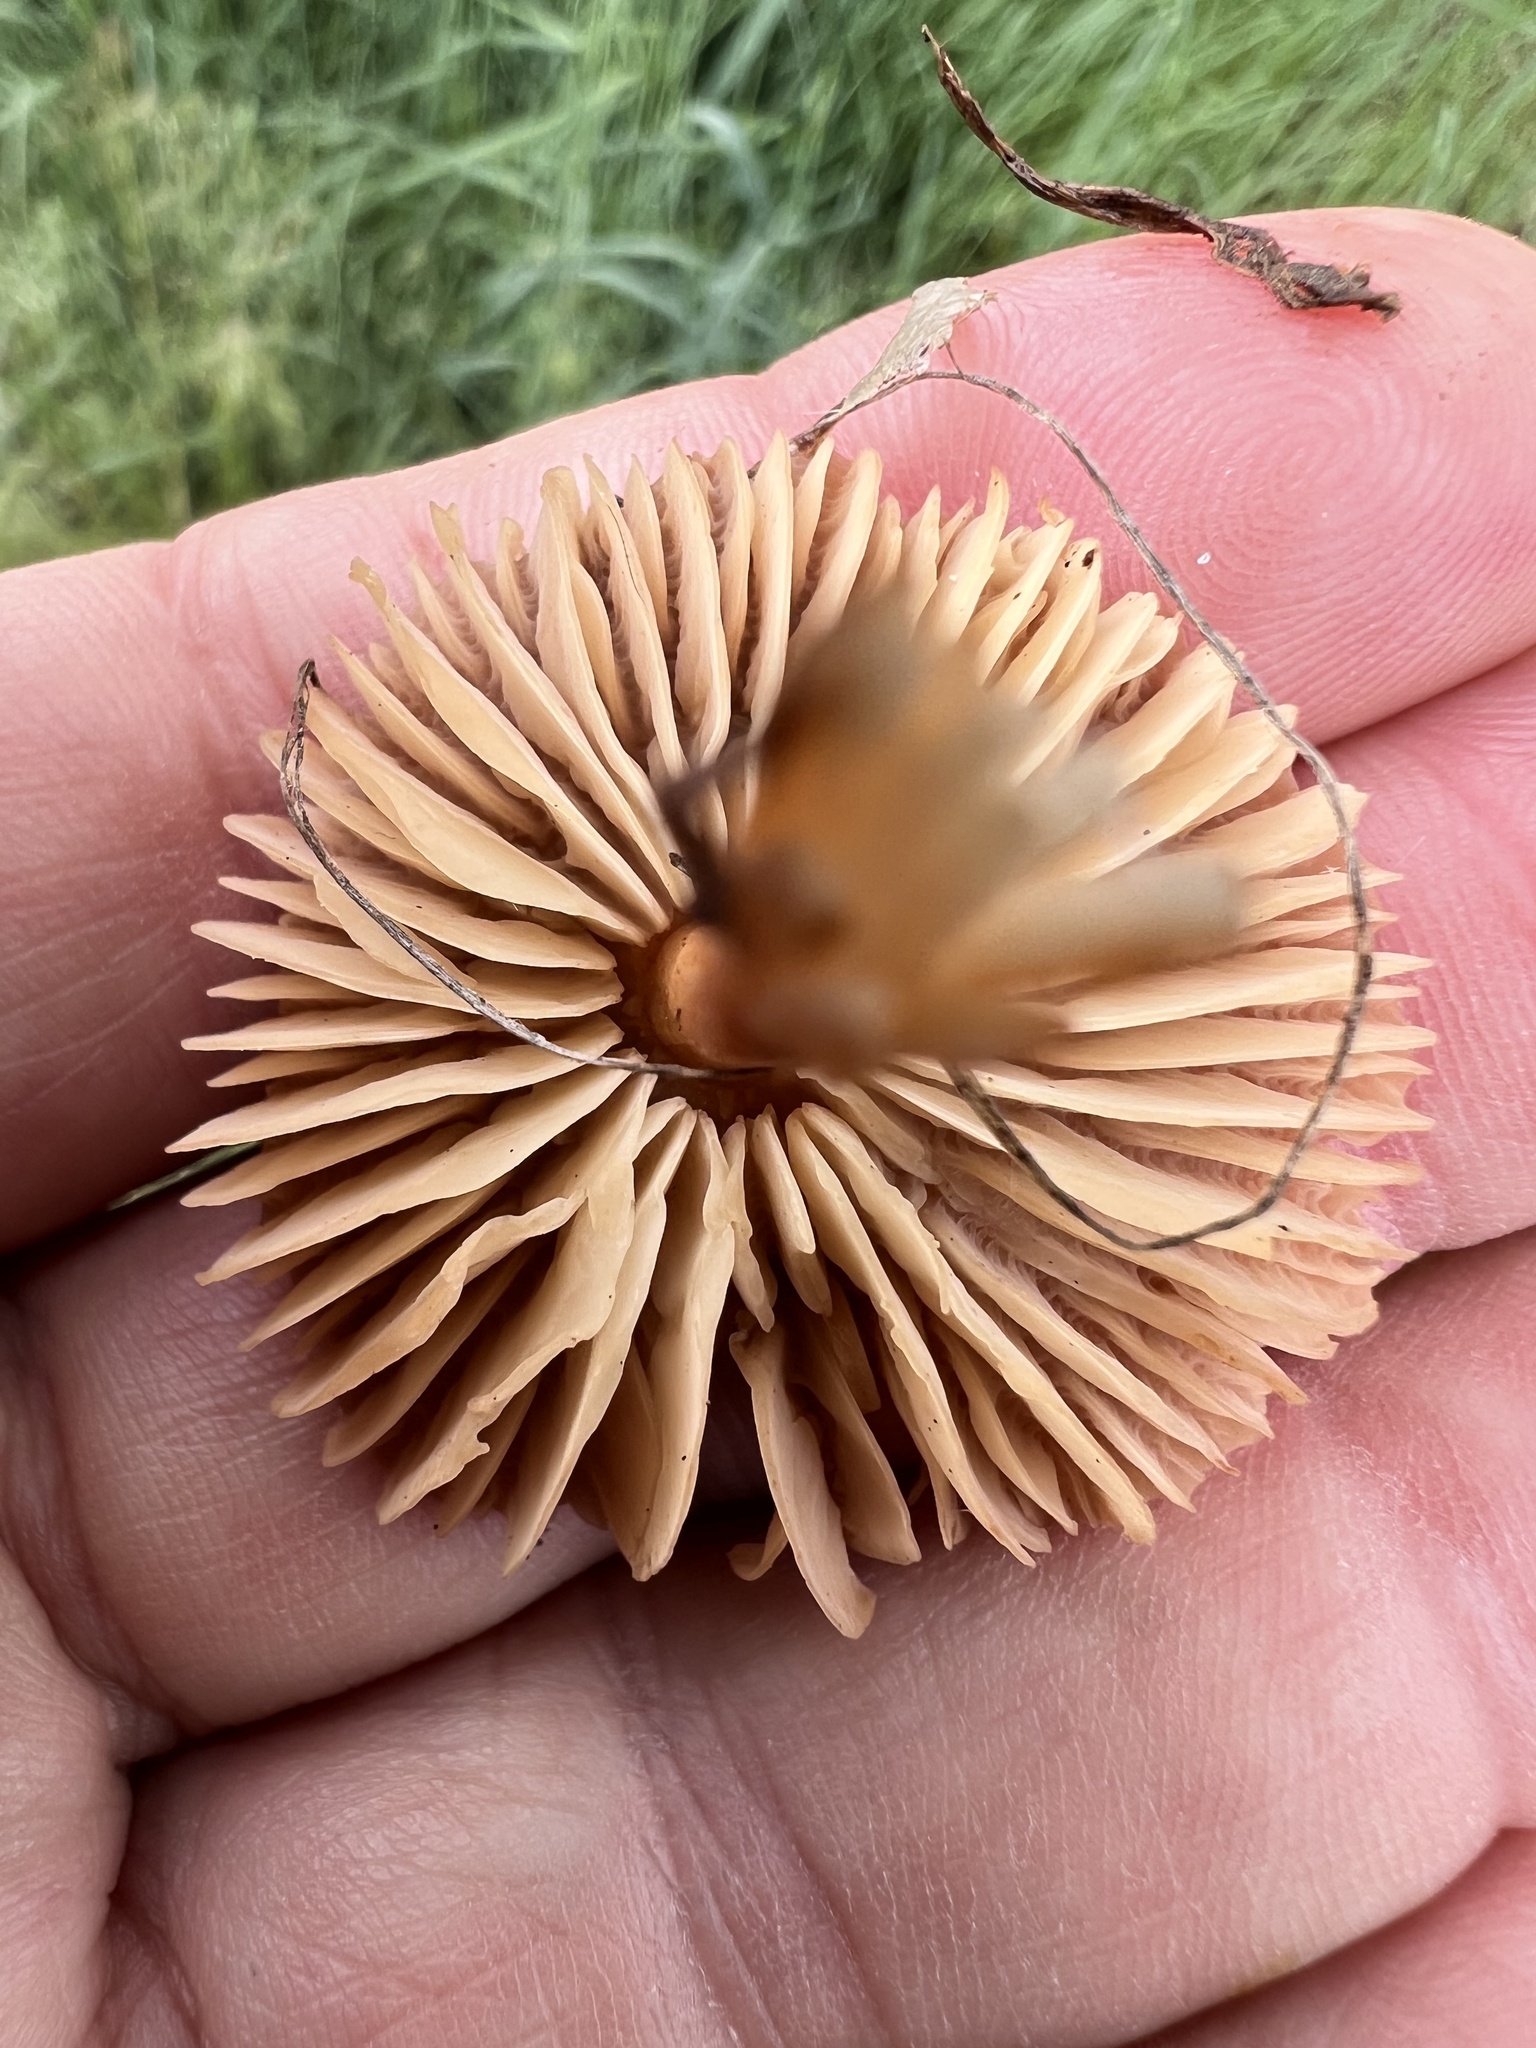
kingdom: Fungi
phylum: Basidiomycota
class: Agaricomycetes
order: Agaricales
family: Marasmiaceae
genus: Marasmius
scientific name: Marasmius oreades
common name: Fairy ring champignon
